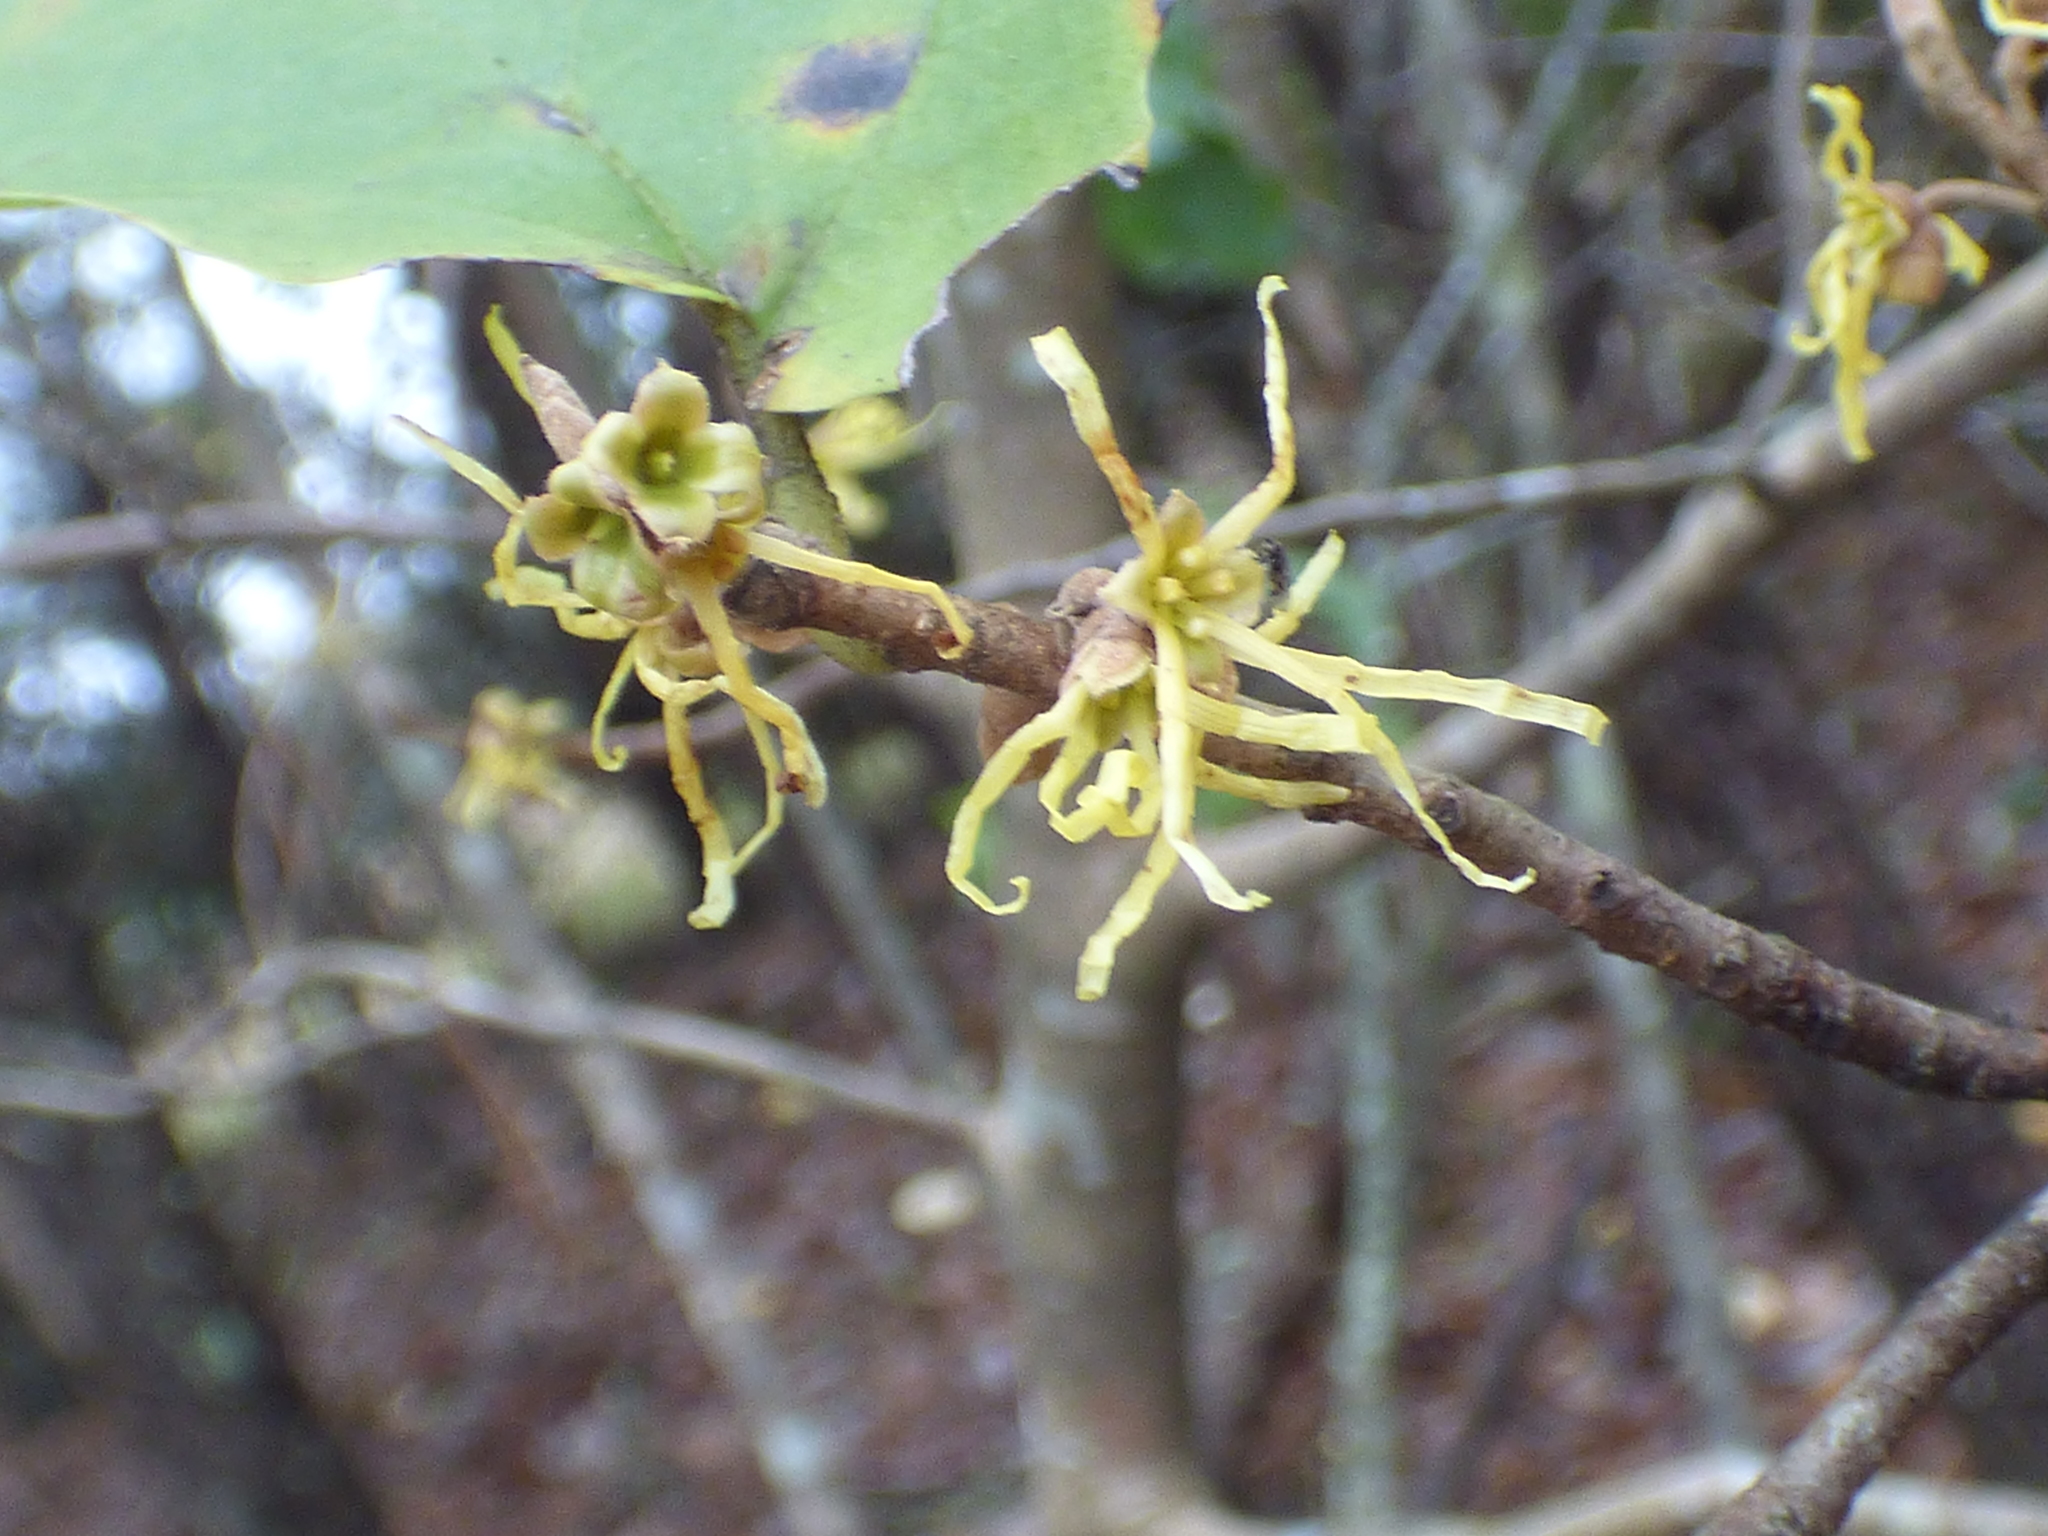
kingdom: Plantae
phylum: Tracheophyta
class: Magnoliopsida
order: Saxifragales
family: Hamamelidaceae
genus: Hamamelis
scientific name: Hamamelis virginiana
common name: Witch-hazel
